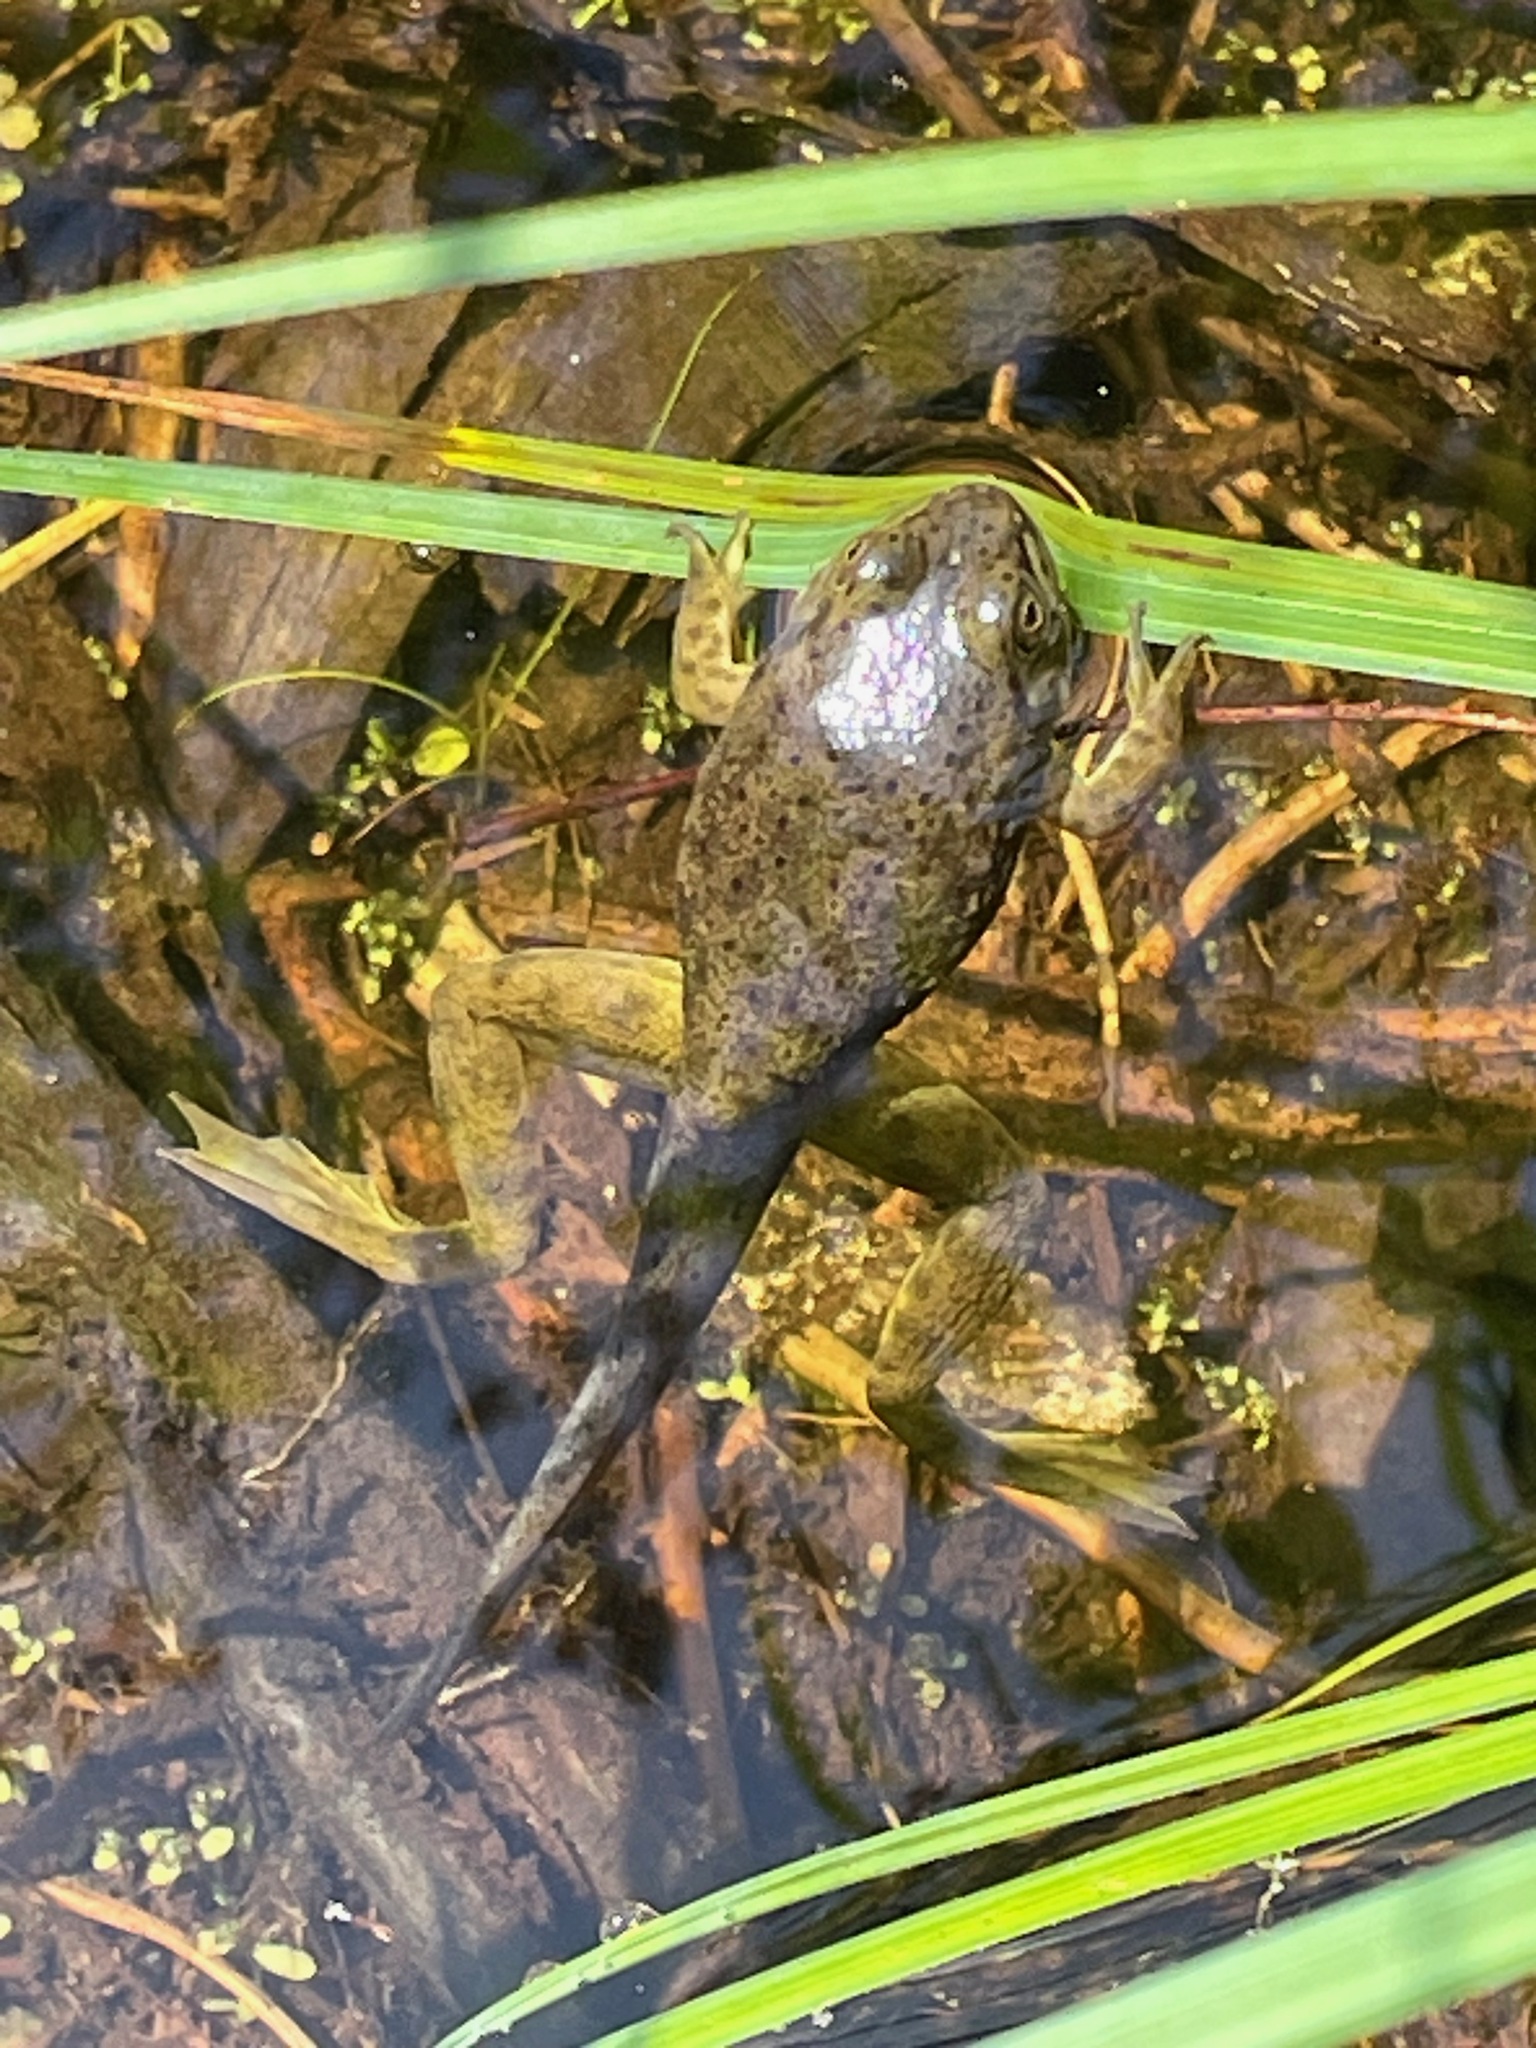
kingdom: Animalia
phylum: Chordata
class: Amphibia
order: Anura
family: Ranidae
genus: Lithobates
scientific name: Lithobates catesbeianus
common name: American bullfrog
